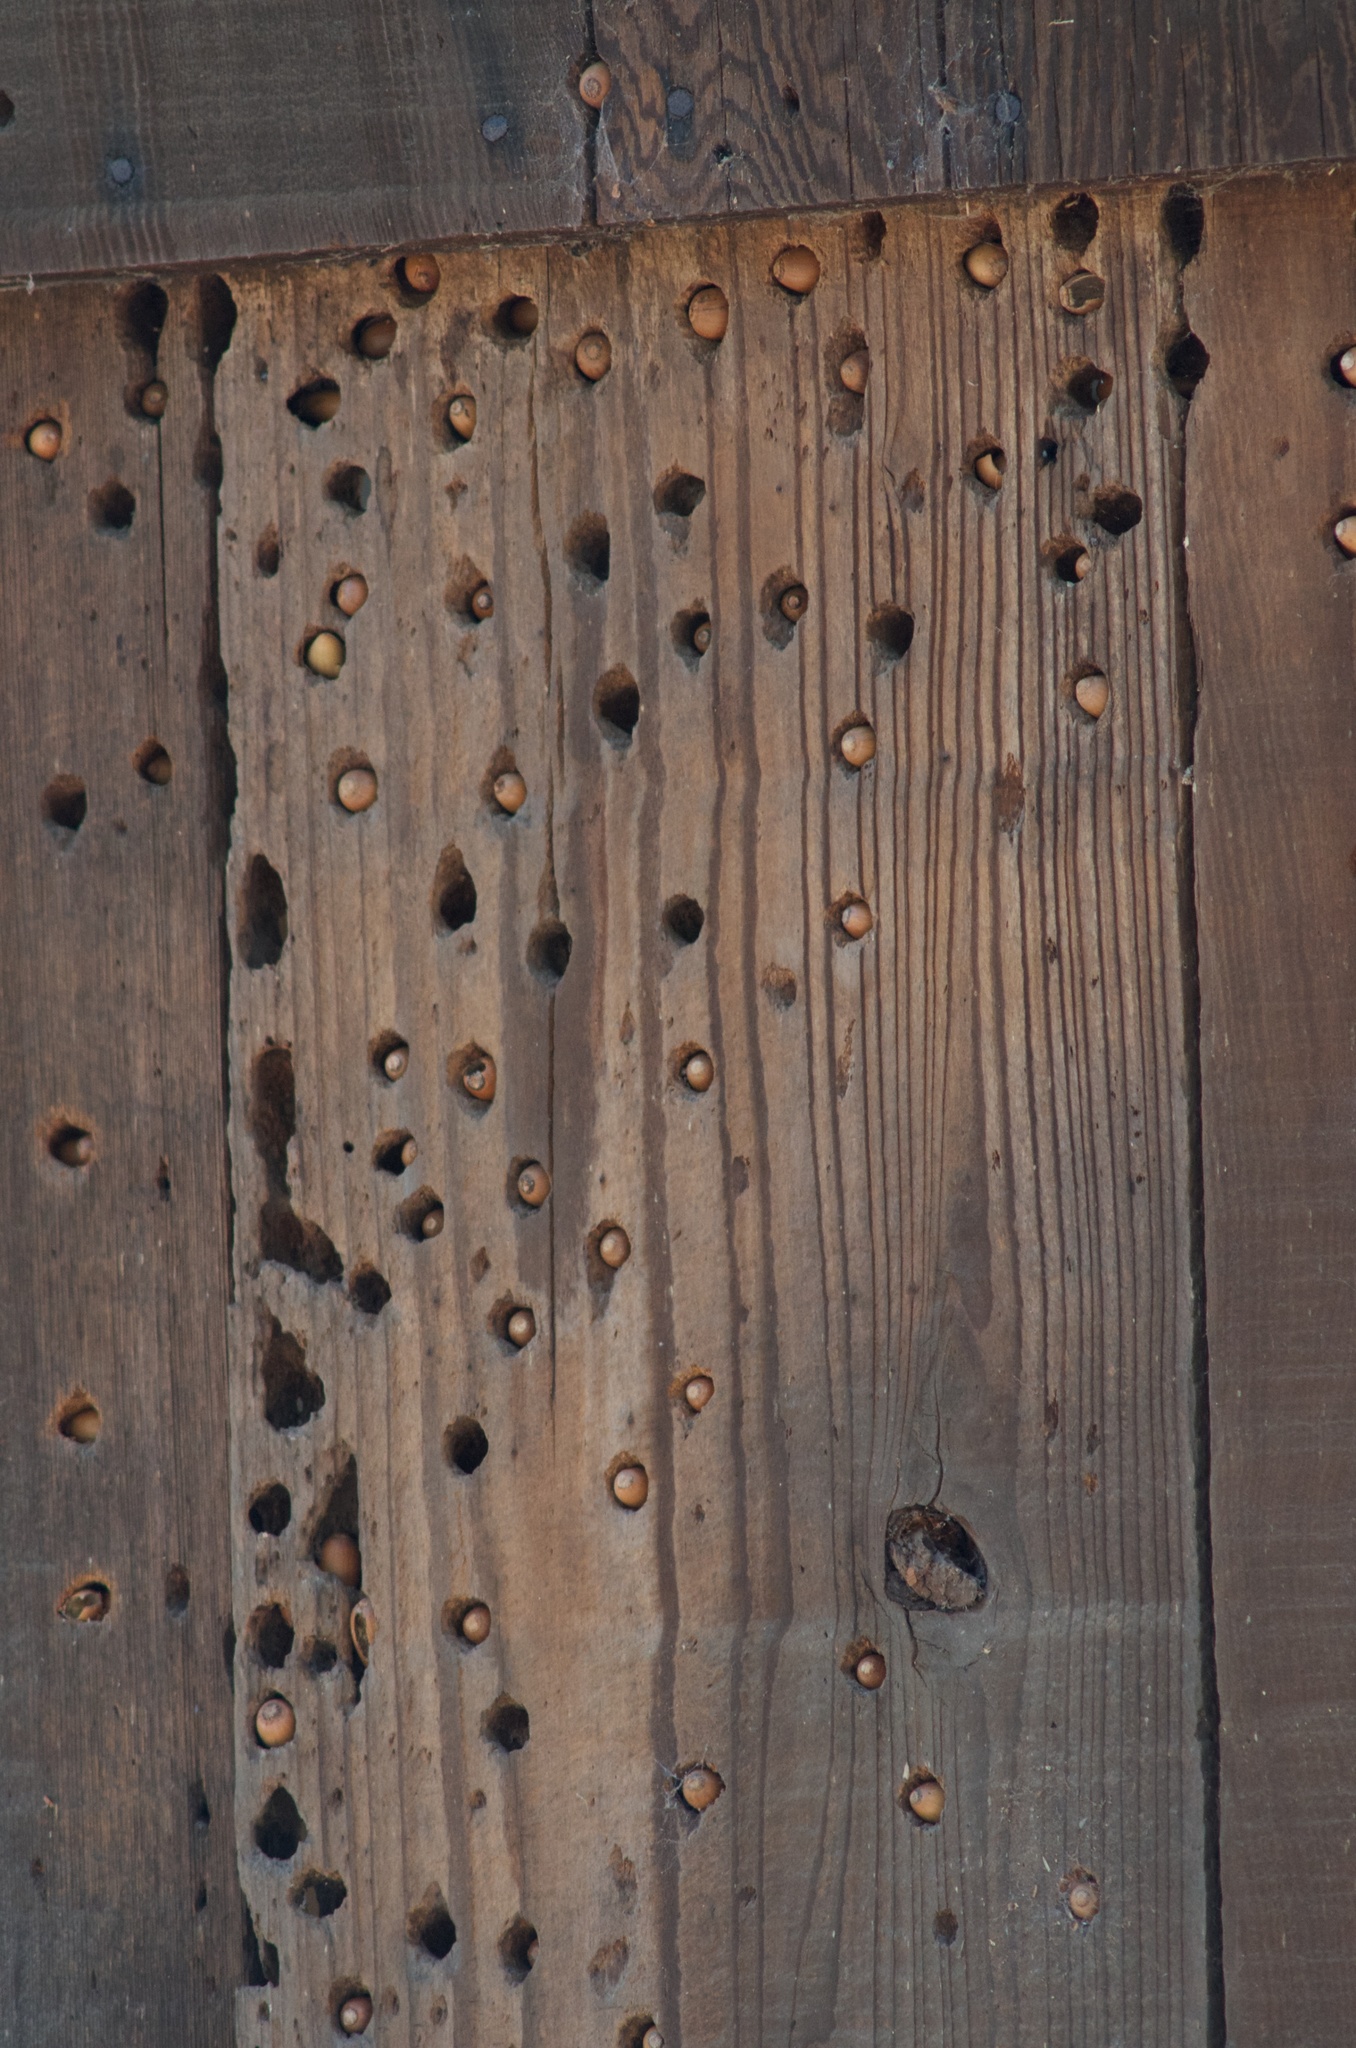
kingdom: Animalia
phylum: Chordata
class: Aves
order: Piciformes
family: Picidae
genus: Melanerpes
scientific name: Melanerpes formicivorus
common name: Acorn woodpecker
